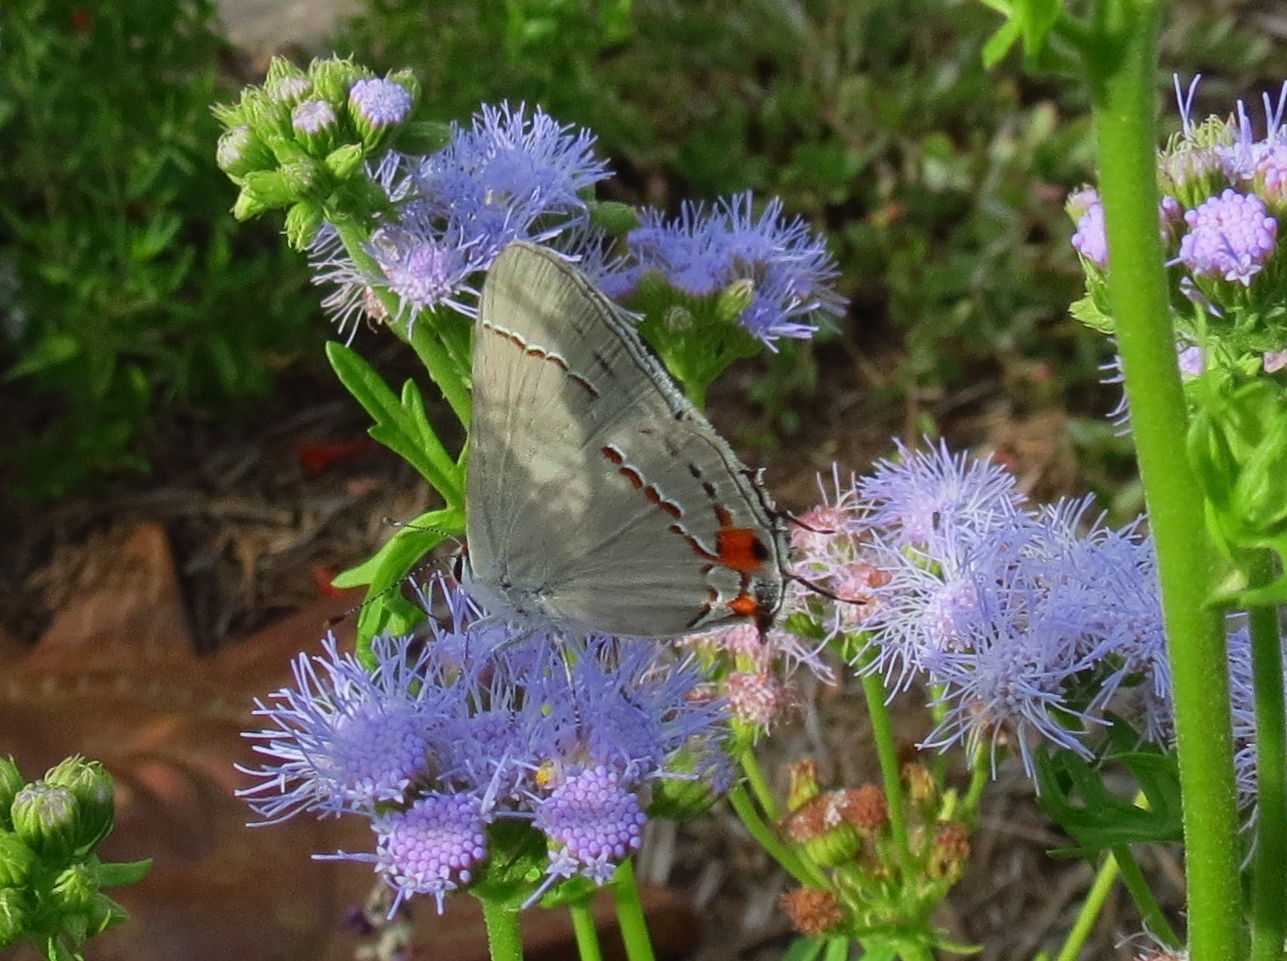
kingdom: Animalia
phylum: Arthropoda
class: Insecta
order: Lepidoptera
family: Lycaenidae
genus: Strymon
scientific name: Strymon melinus
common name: Gray hairstreak
